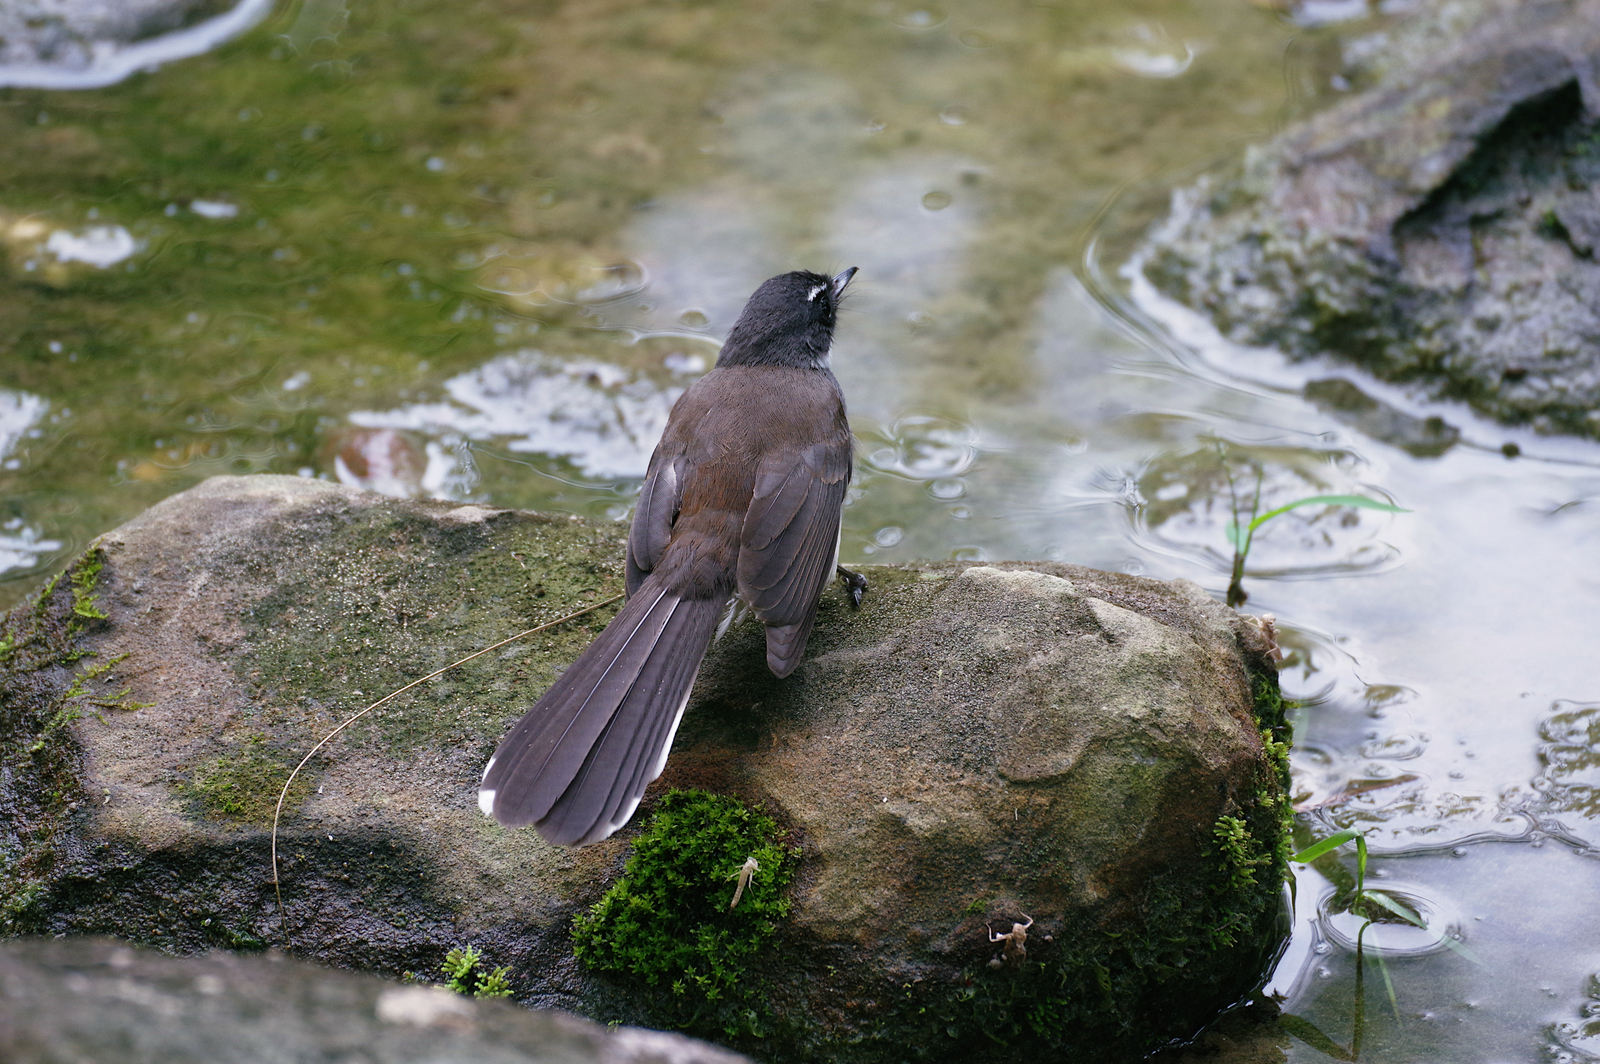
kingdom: Animalia
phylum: Chordata
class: Aves
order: Passeriformes
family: Rhipiduridae
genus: Rhipidura
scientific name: Rhipidura javanica
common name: Pied fantail
